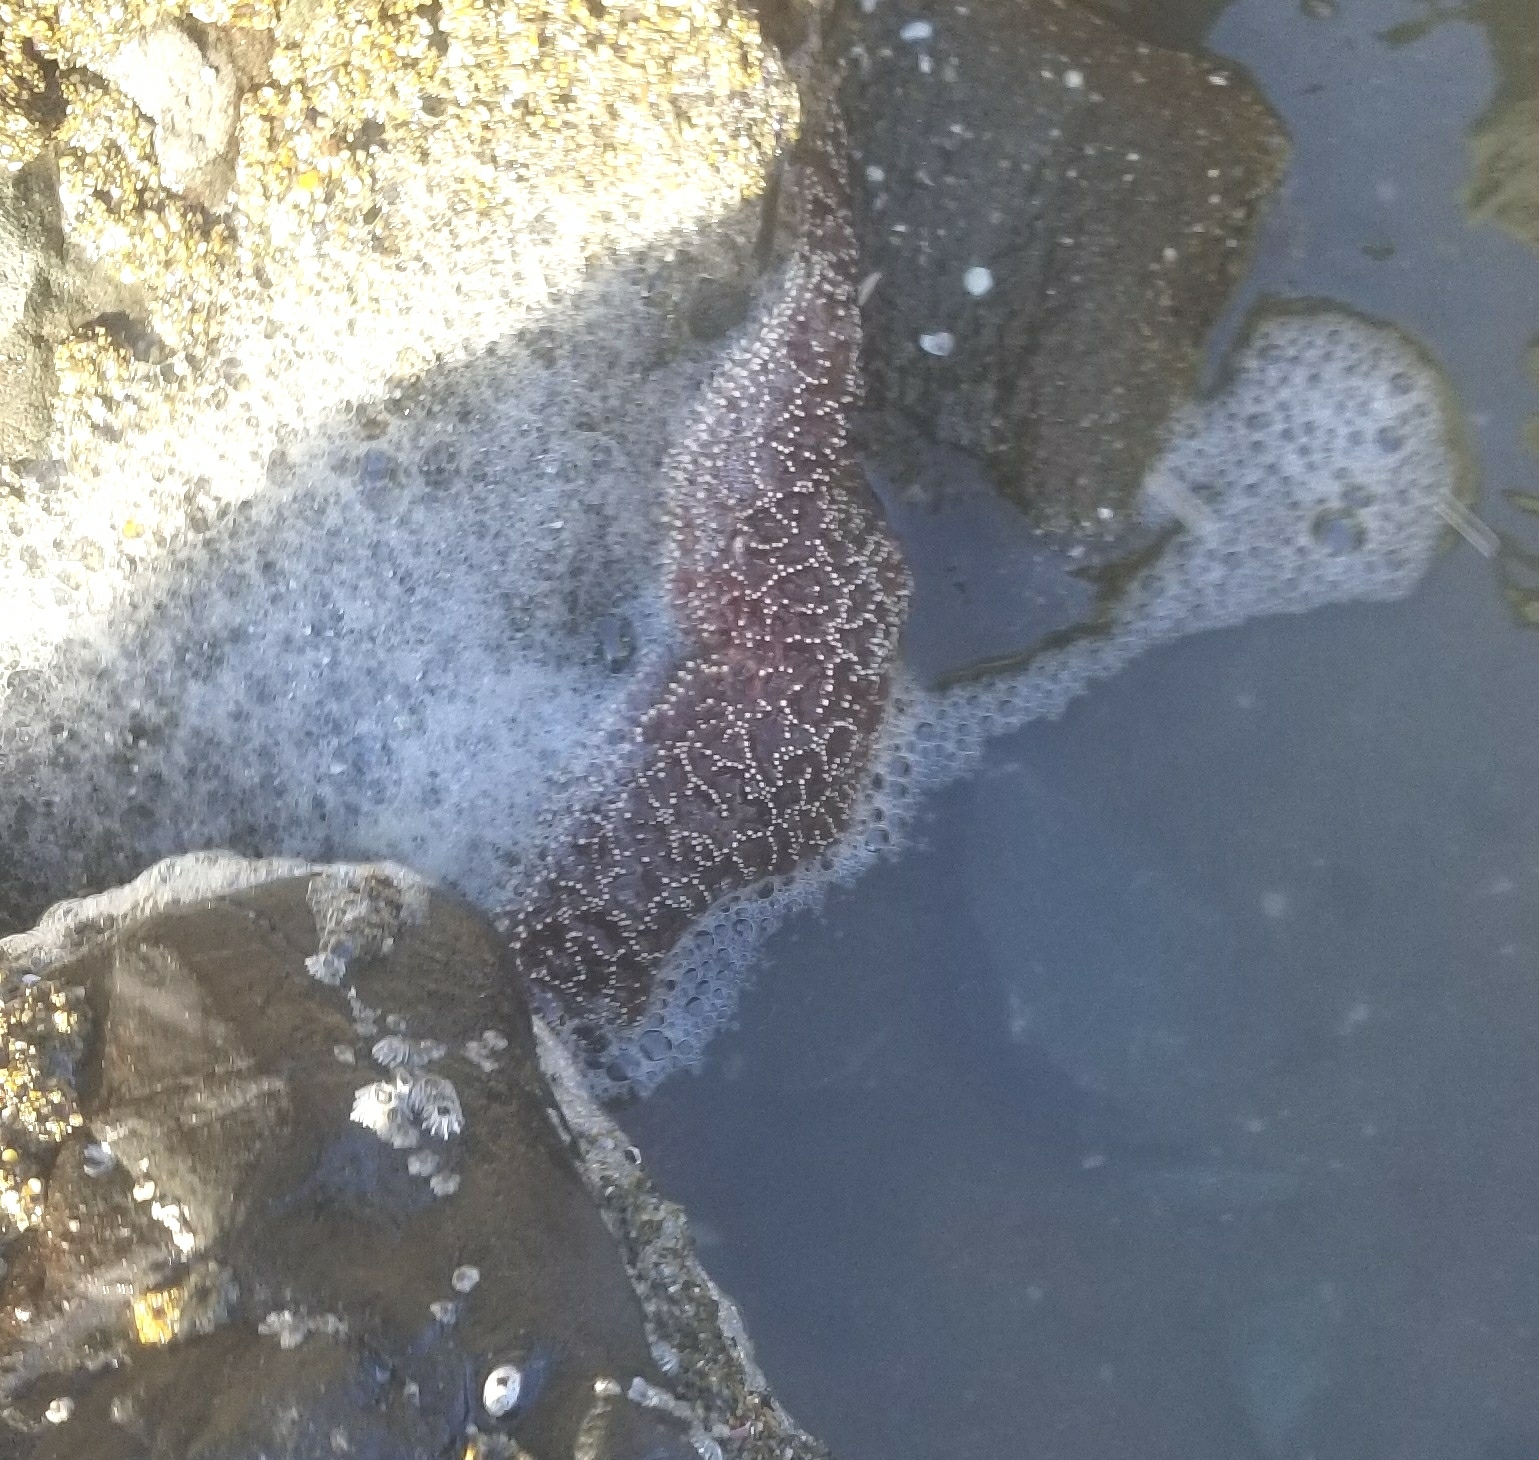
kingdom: Animalia
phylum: Echinodermata
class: Asteroidea
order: Forcipulatida
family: Asteriidae
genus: Pisaster
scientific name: Pisaster ochraceus
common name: Ochre stars
